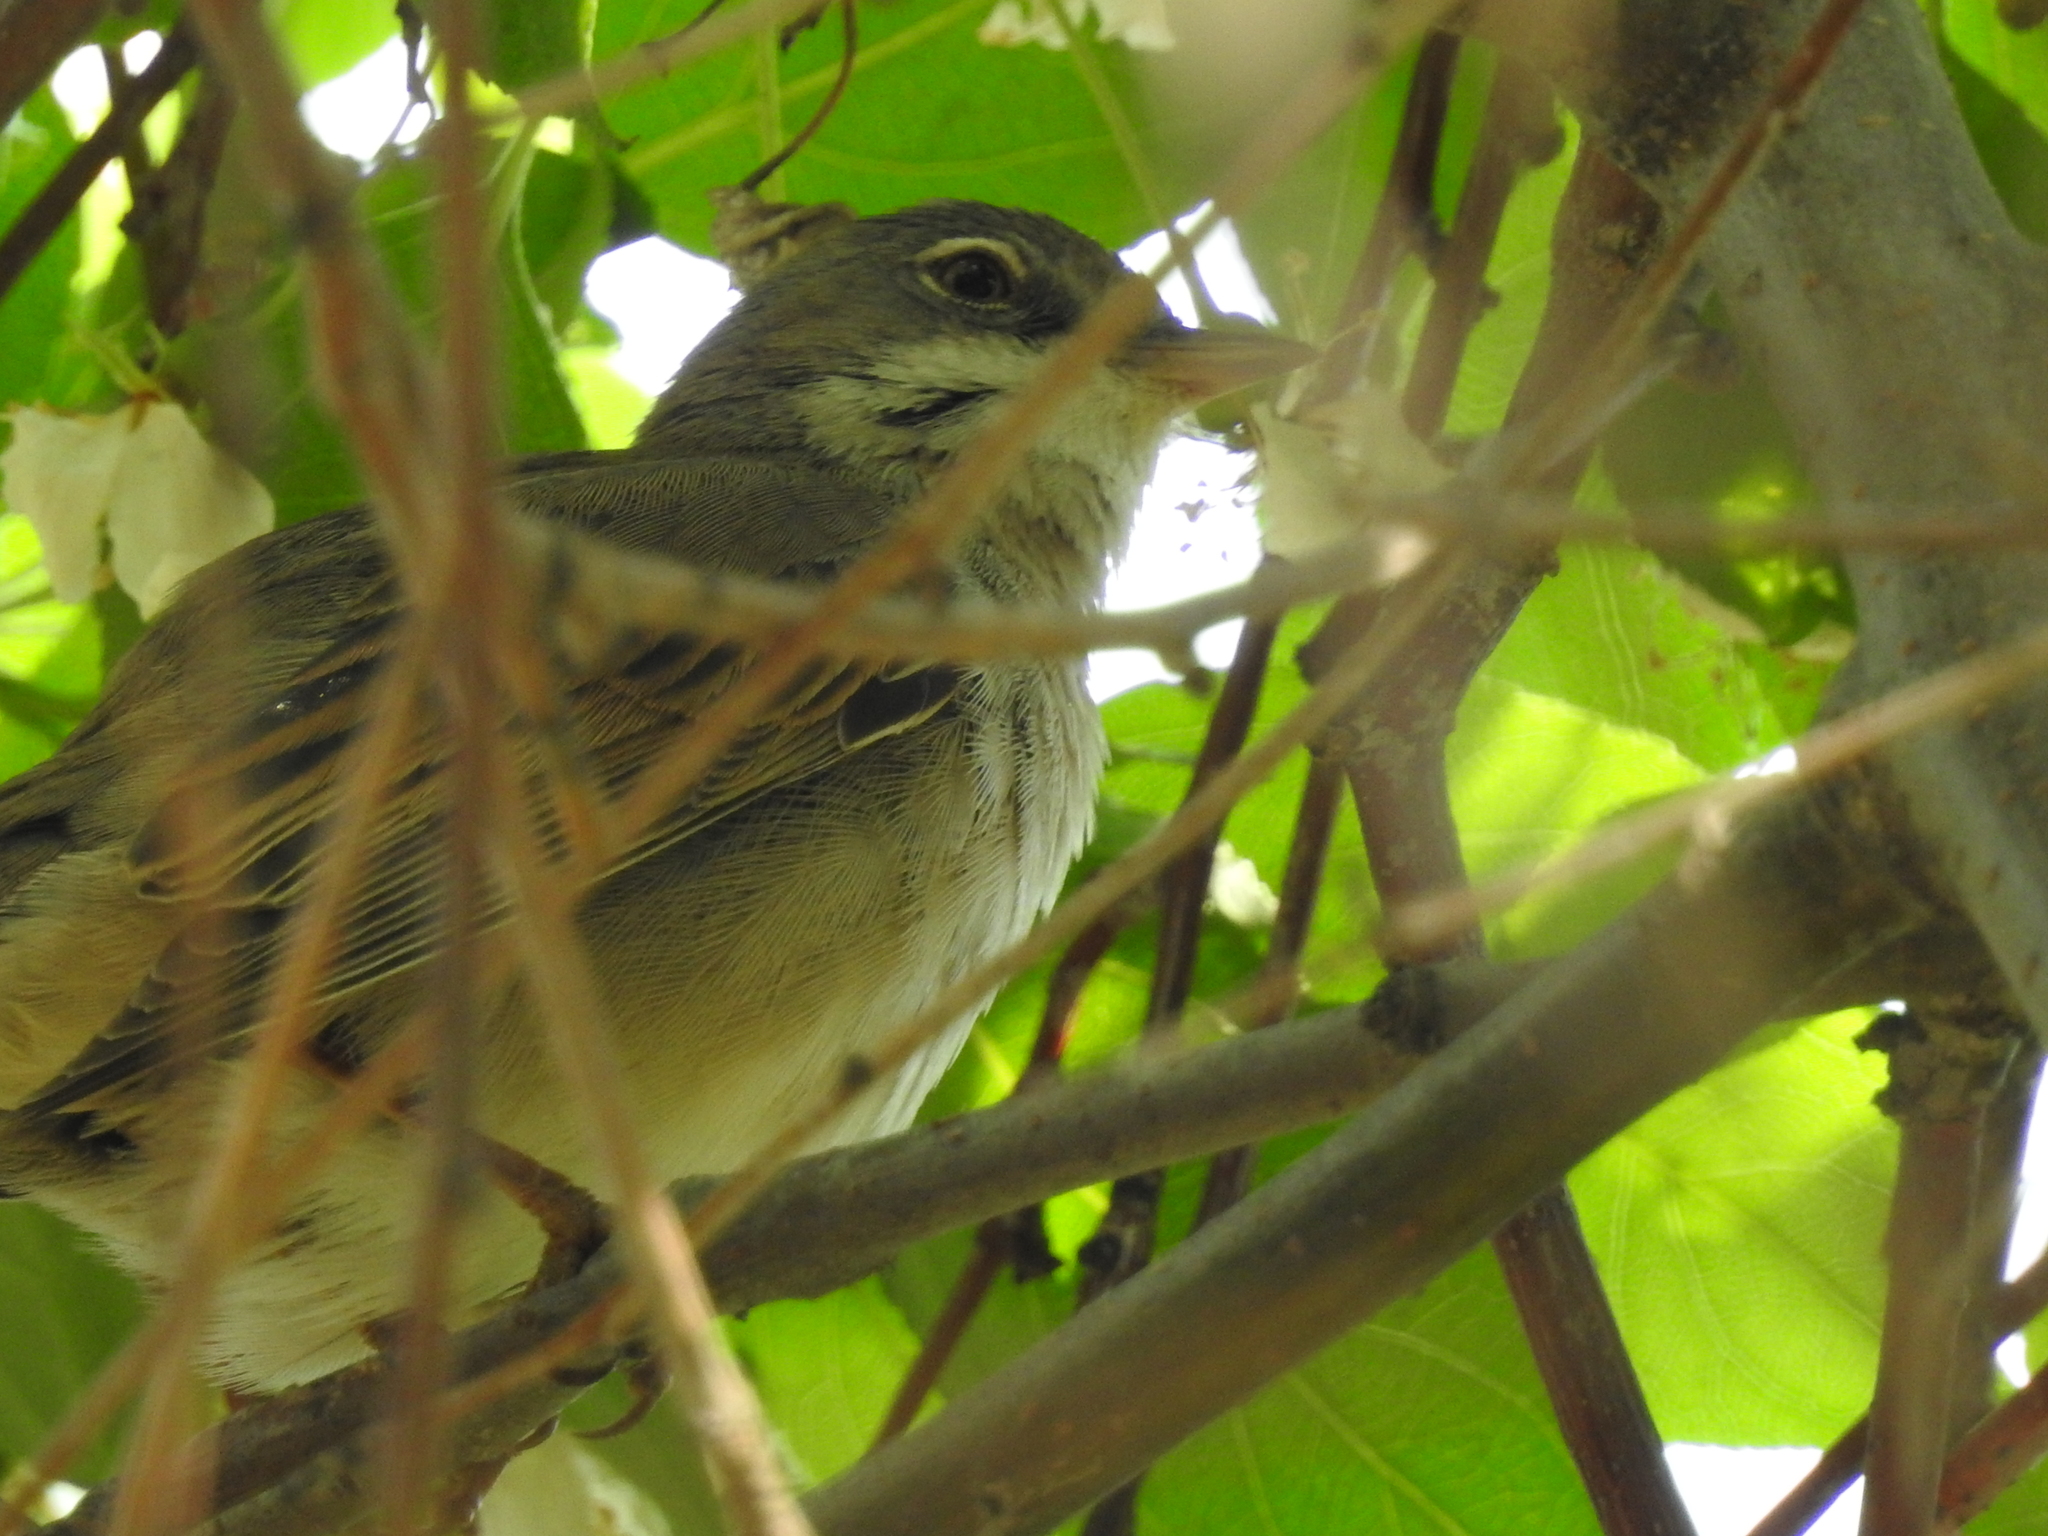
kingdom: Animalia
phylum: Chordata
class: Aves
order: Passeriformes
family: Sylviidae
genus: Sylvia
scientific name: Sylvia communis
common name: Common whitethroat
